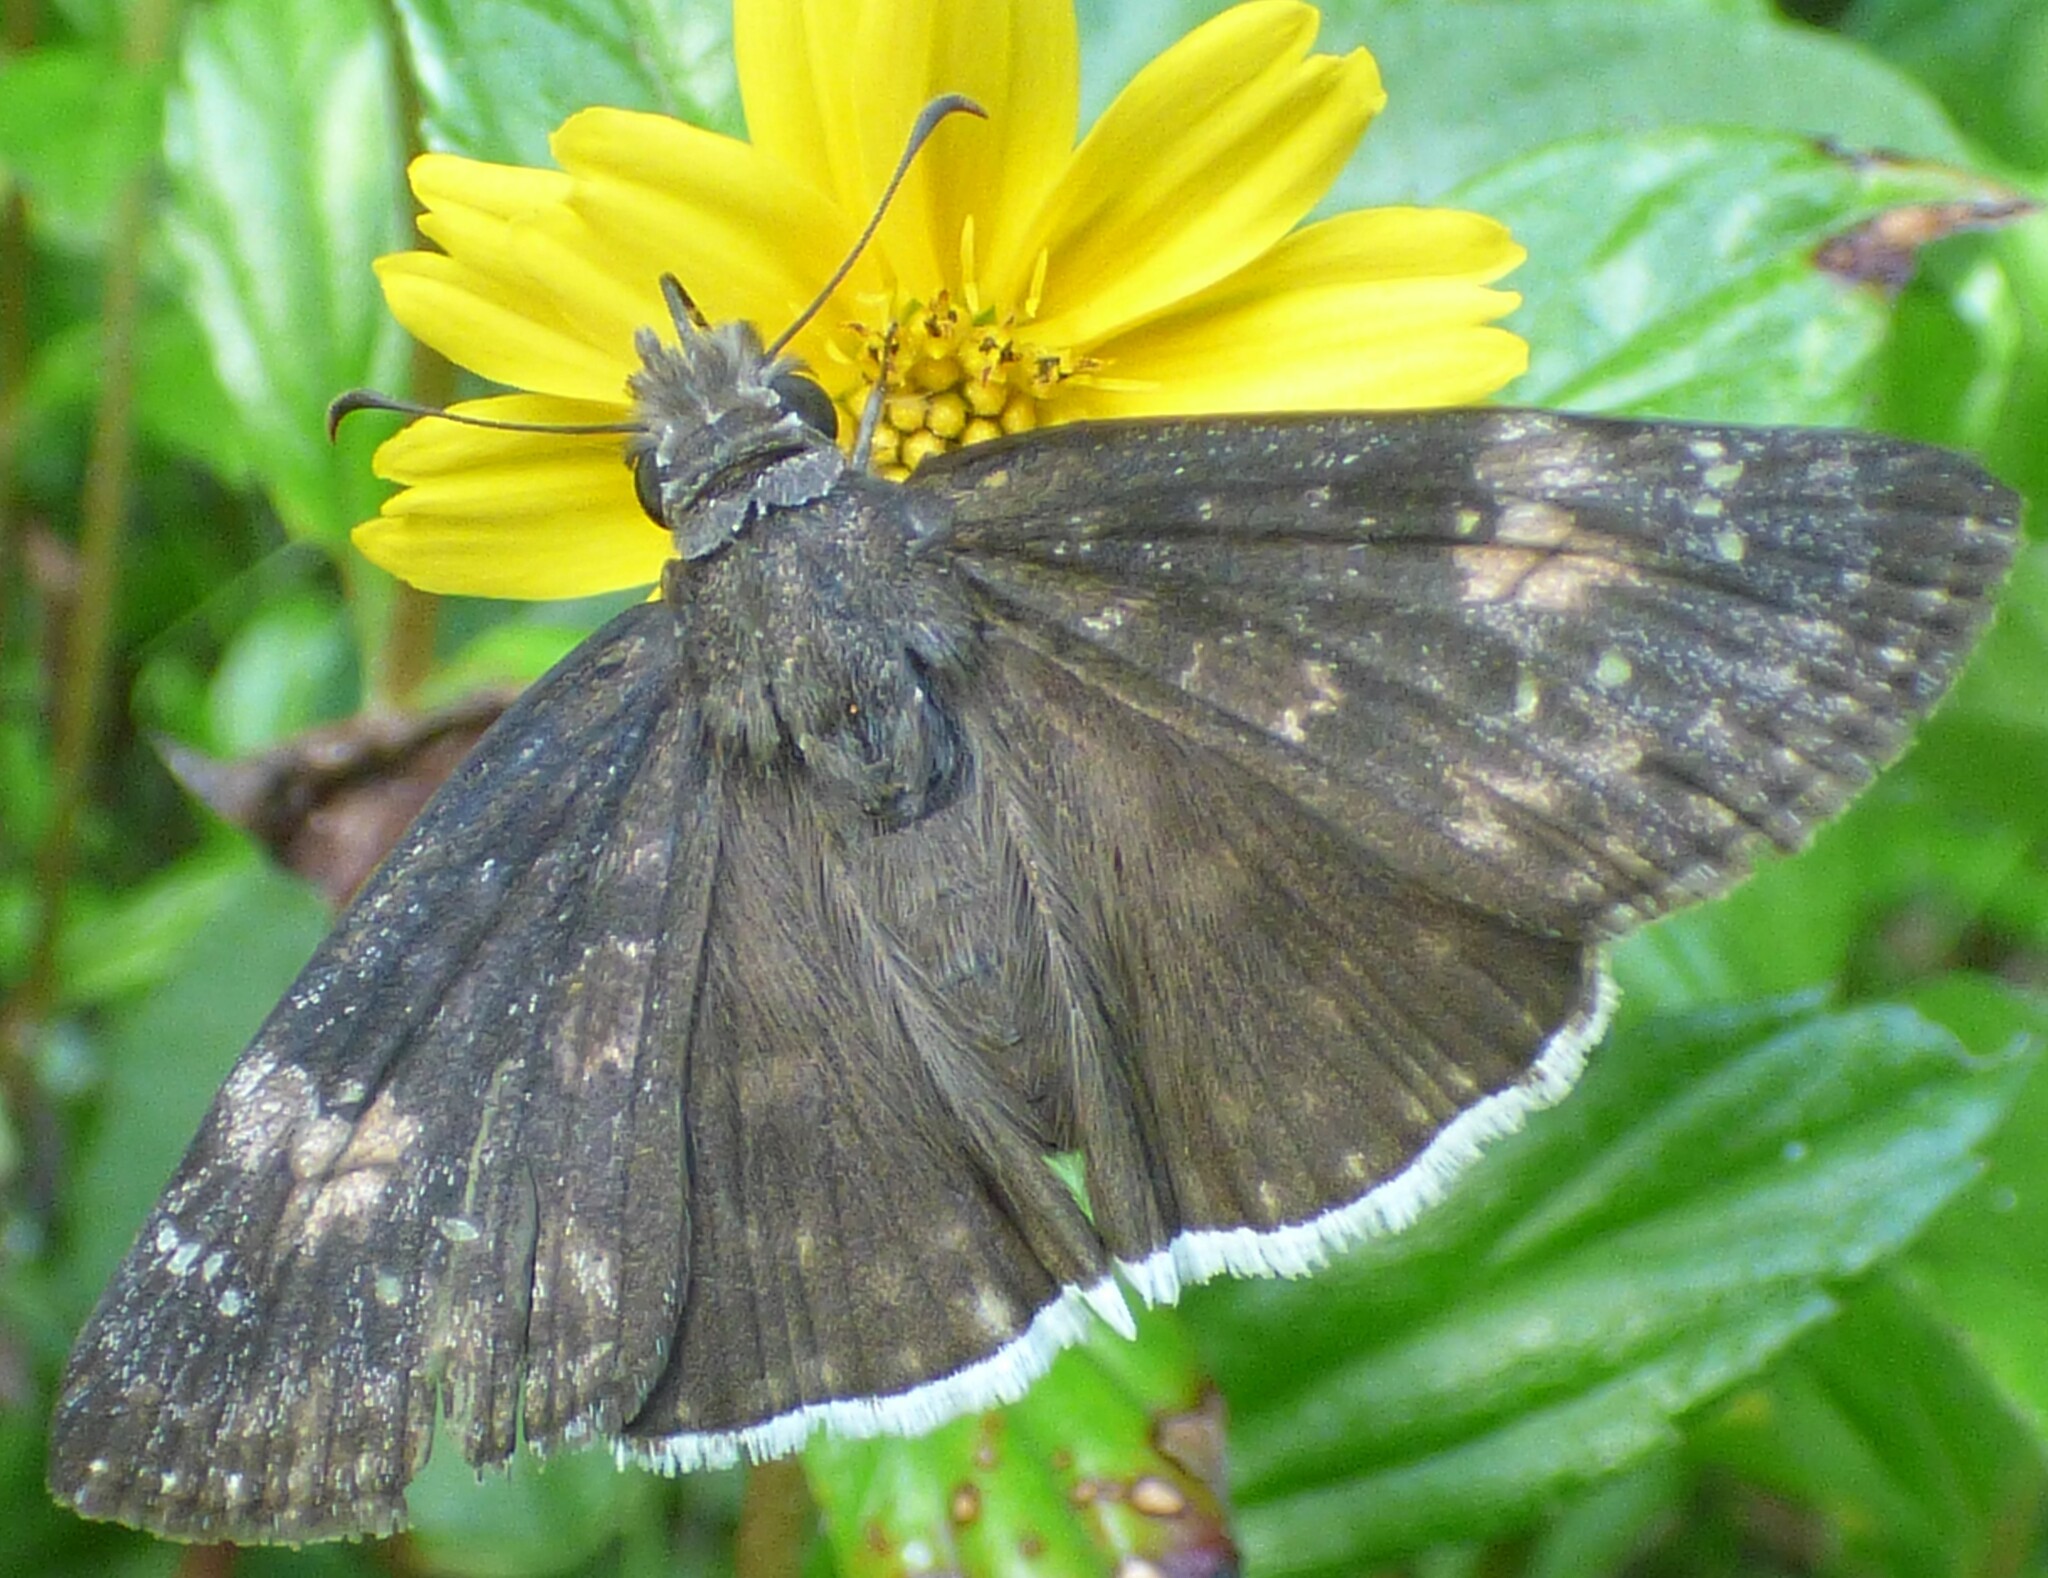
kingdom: Animalia
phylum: Arthropoda
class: Insecta
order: Lepidoptera
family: Hesperiidae
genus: Erynnis
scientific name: Erynnis funeralis
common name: Funereal duskywing
